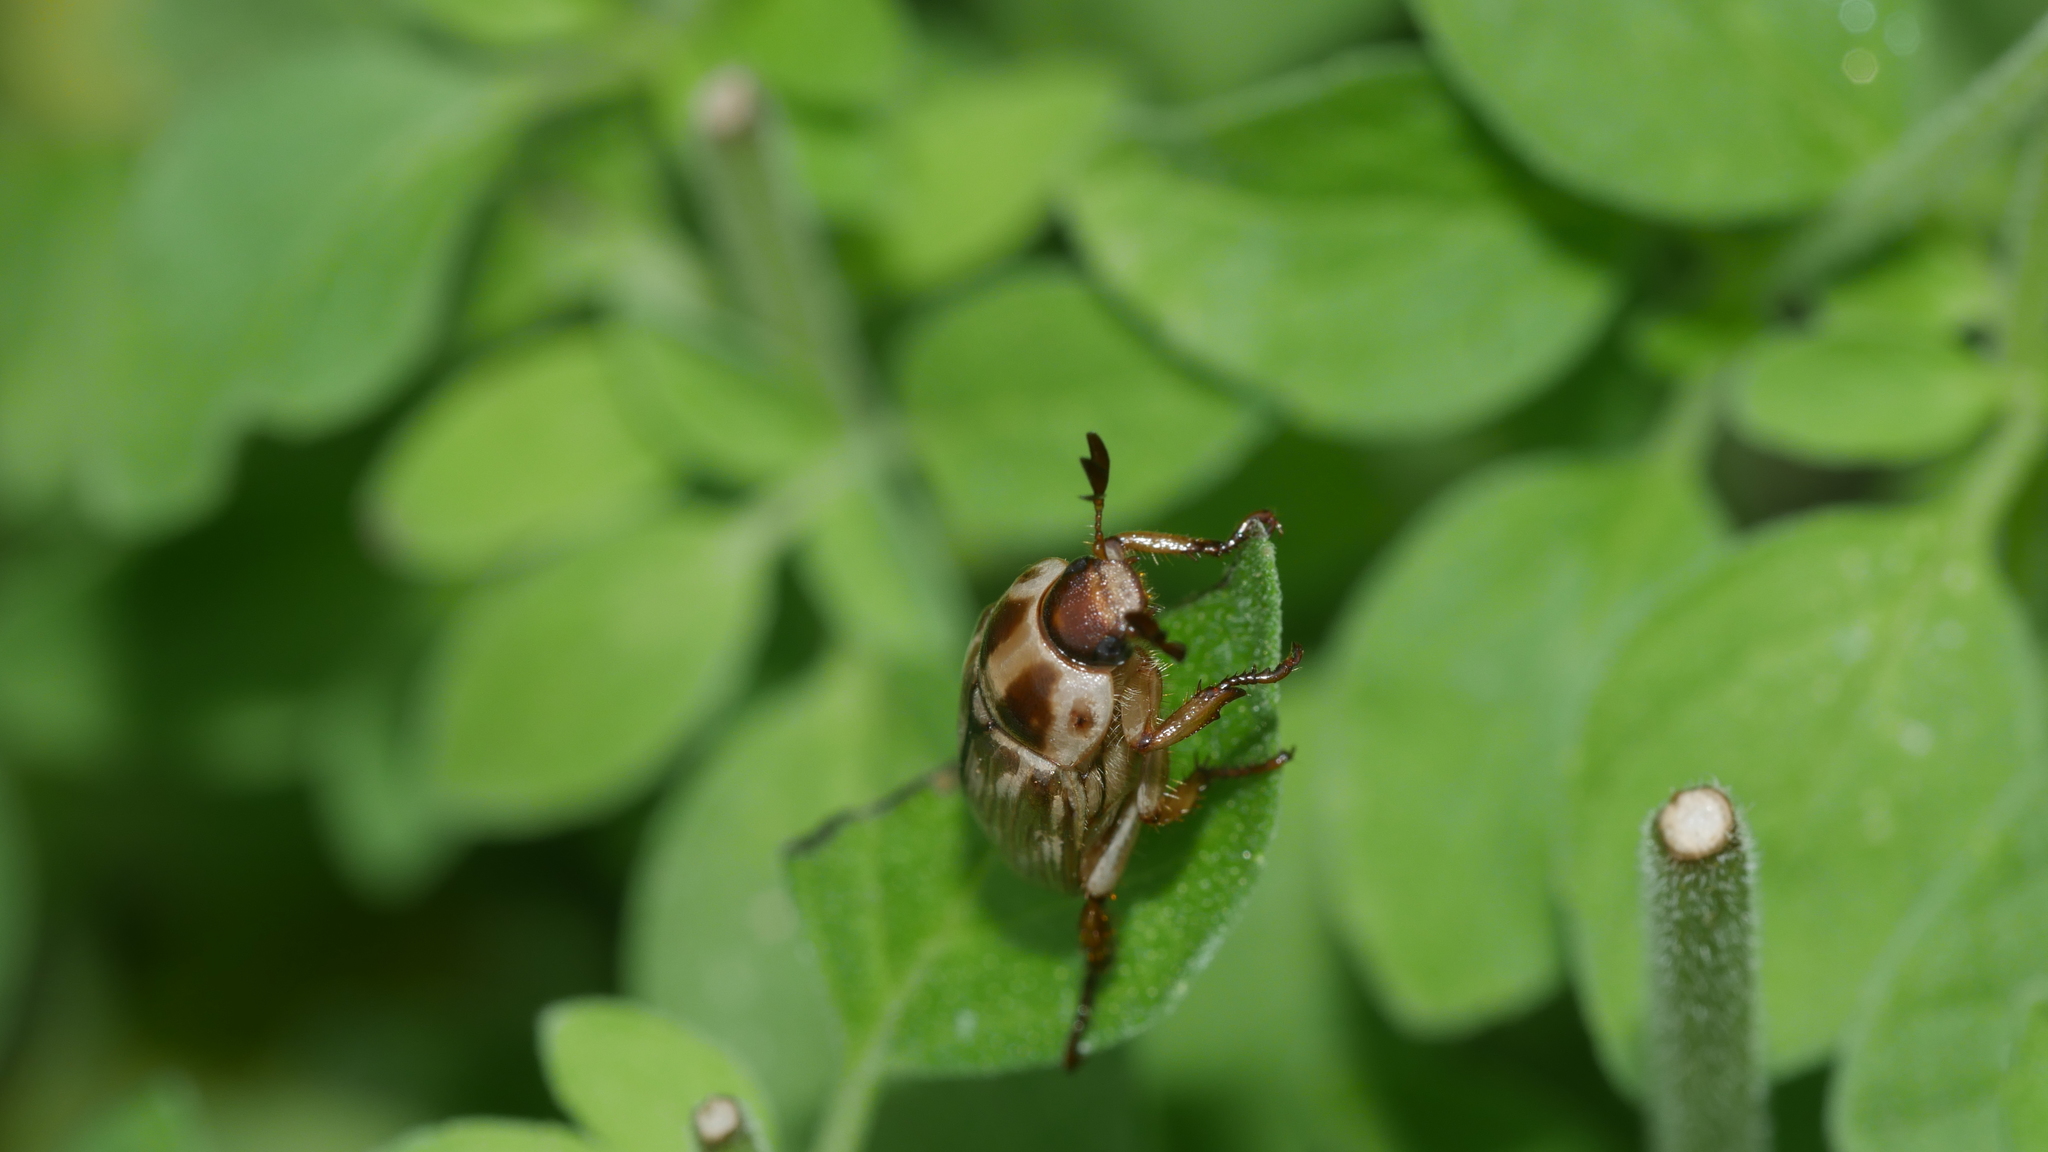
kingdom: Animalia
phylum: Arthropoda
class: Insecta
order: Coleoptera
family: Scarabaeidae
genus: Exomala
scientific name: Exomala orientalis
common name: Oriental beetle
